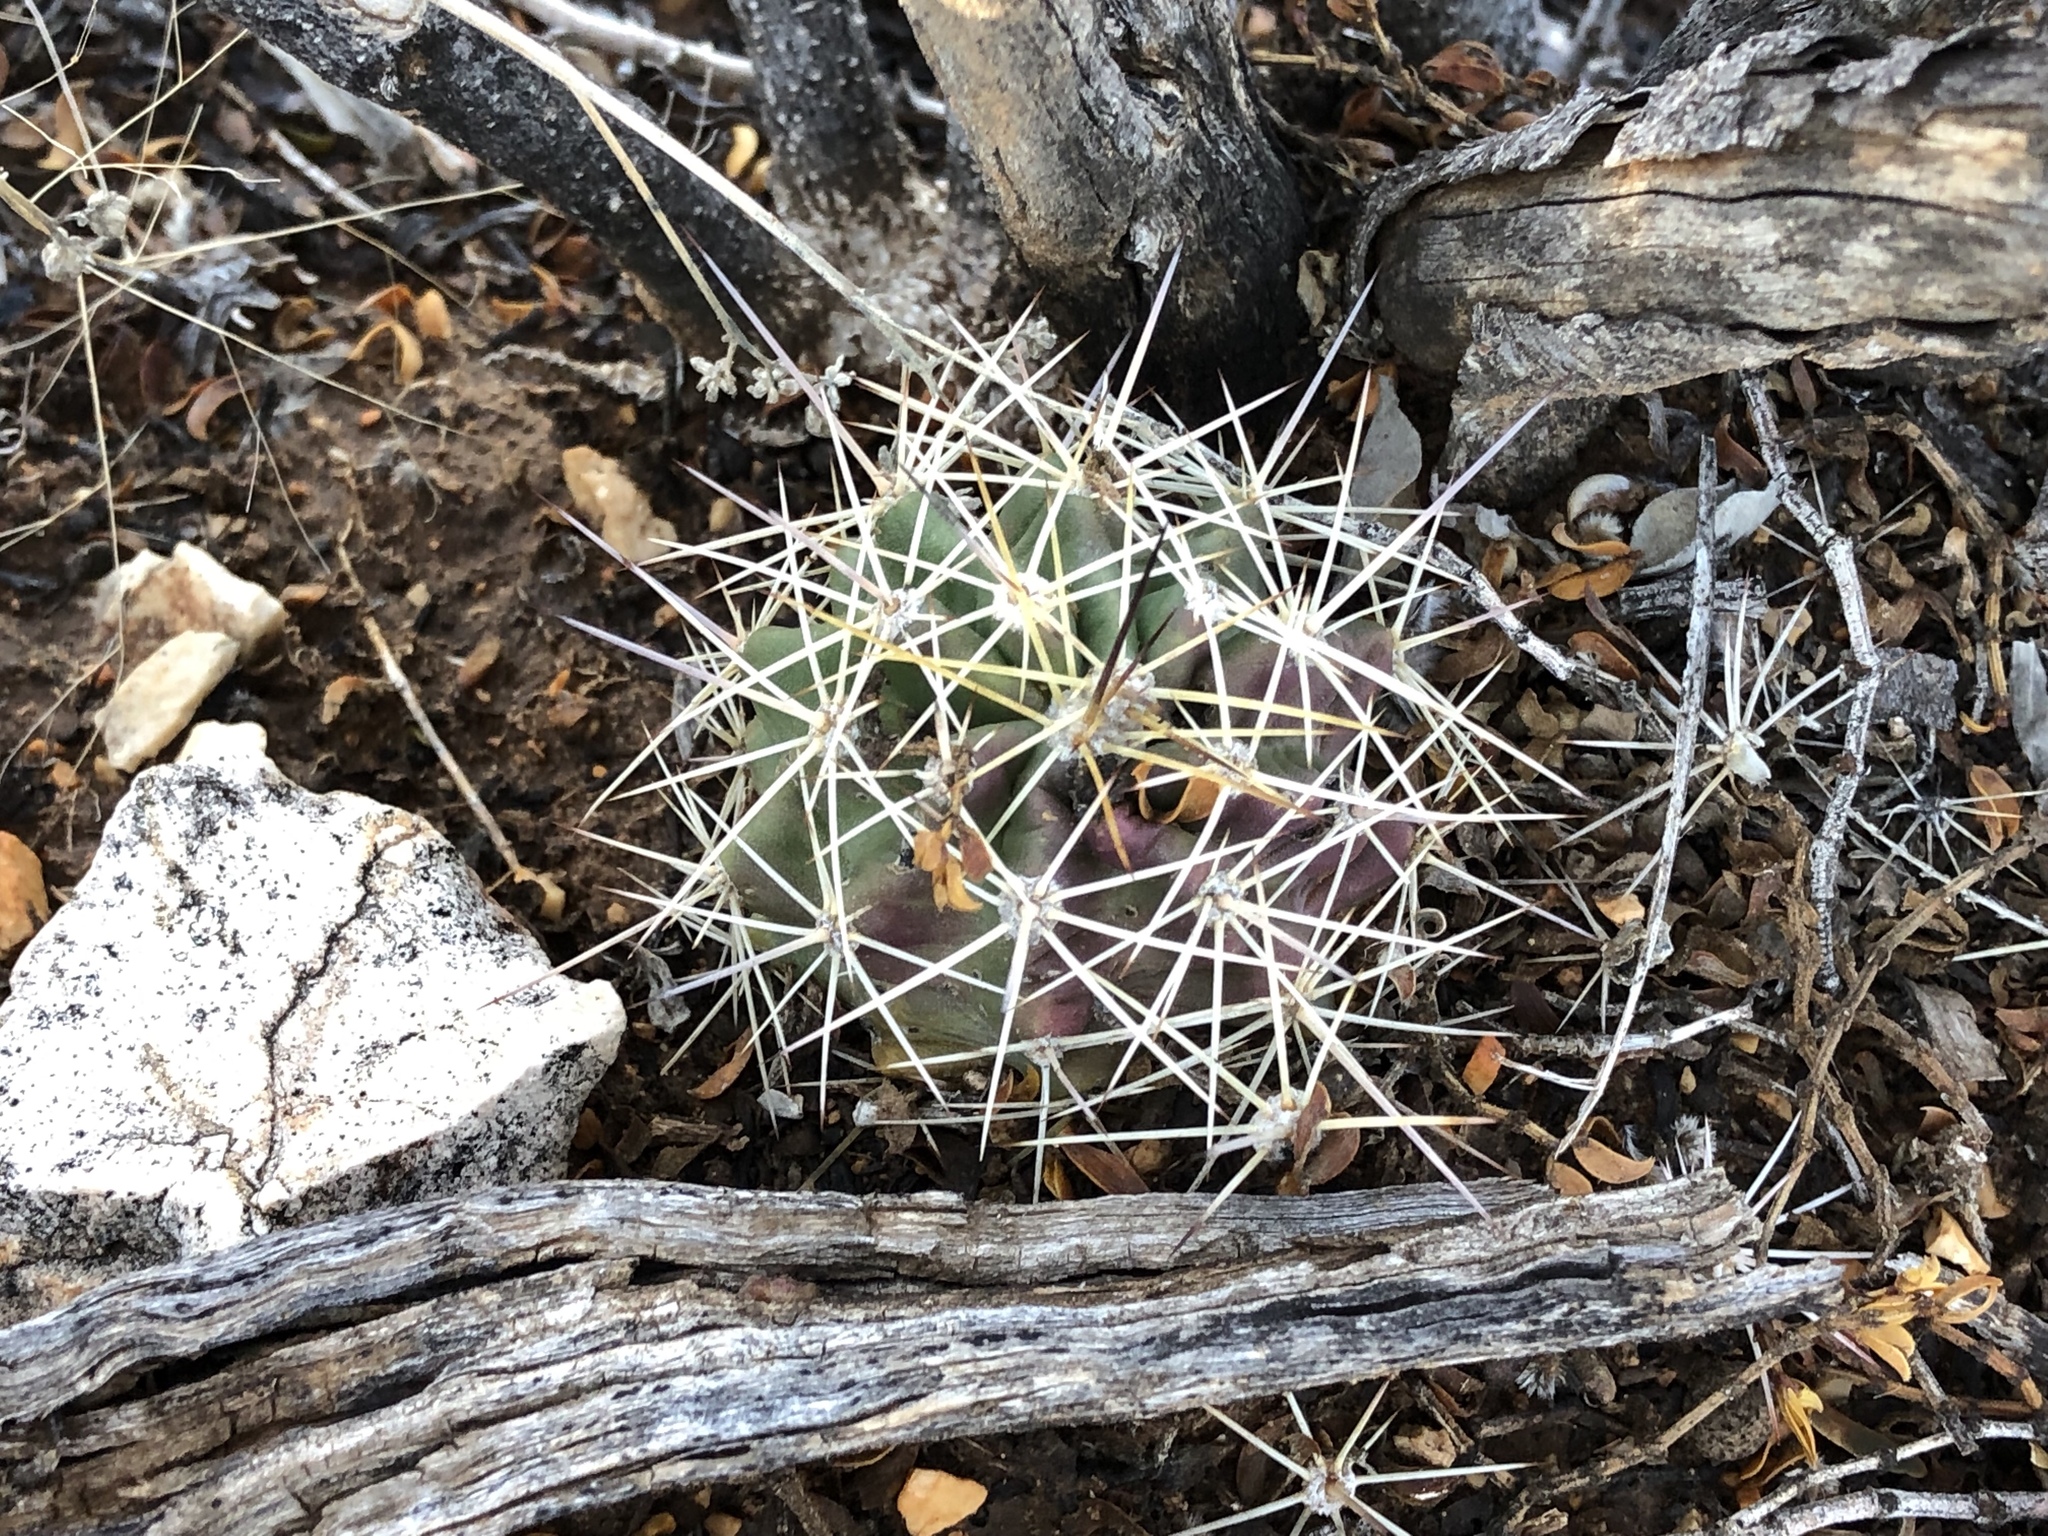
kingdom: Plantae
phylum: Tracheophyta
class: Magnoliopsida
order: Caryophyllales
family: Cactaceae
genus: Echinocereus
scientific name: Echinocereus coccineus
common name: Scarlet hedgehog cactus
